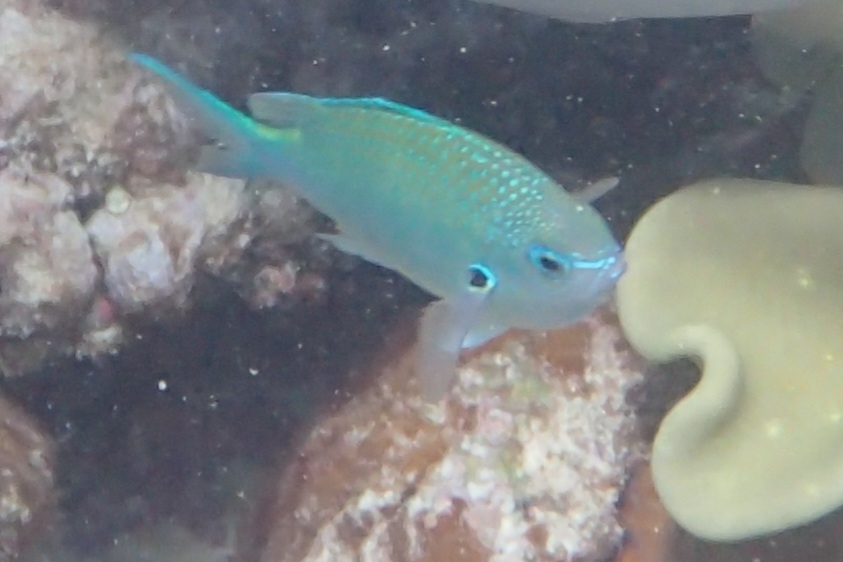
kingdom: Animalia
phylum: Chordata
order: Perciformes
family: Pomacentridae
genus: Chromis
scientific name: Chromis atripectoralis
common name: Black-axil chromis
